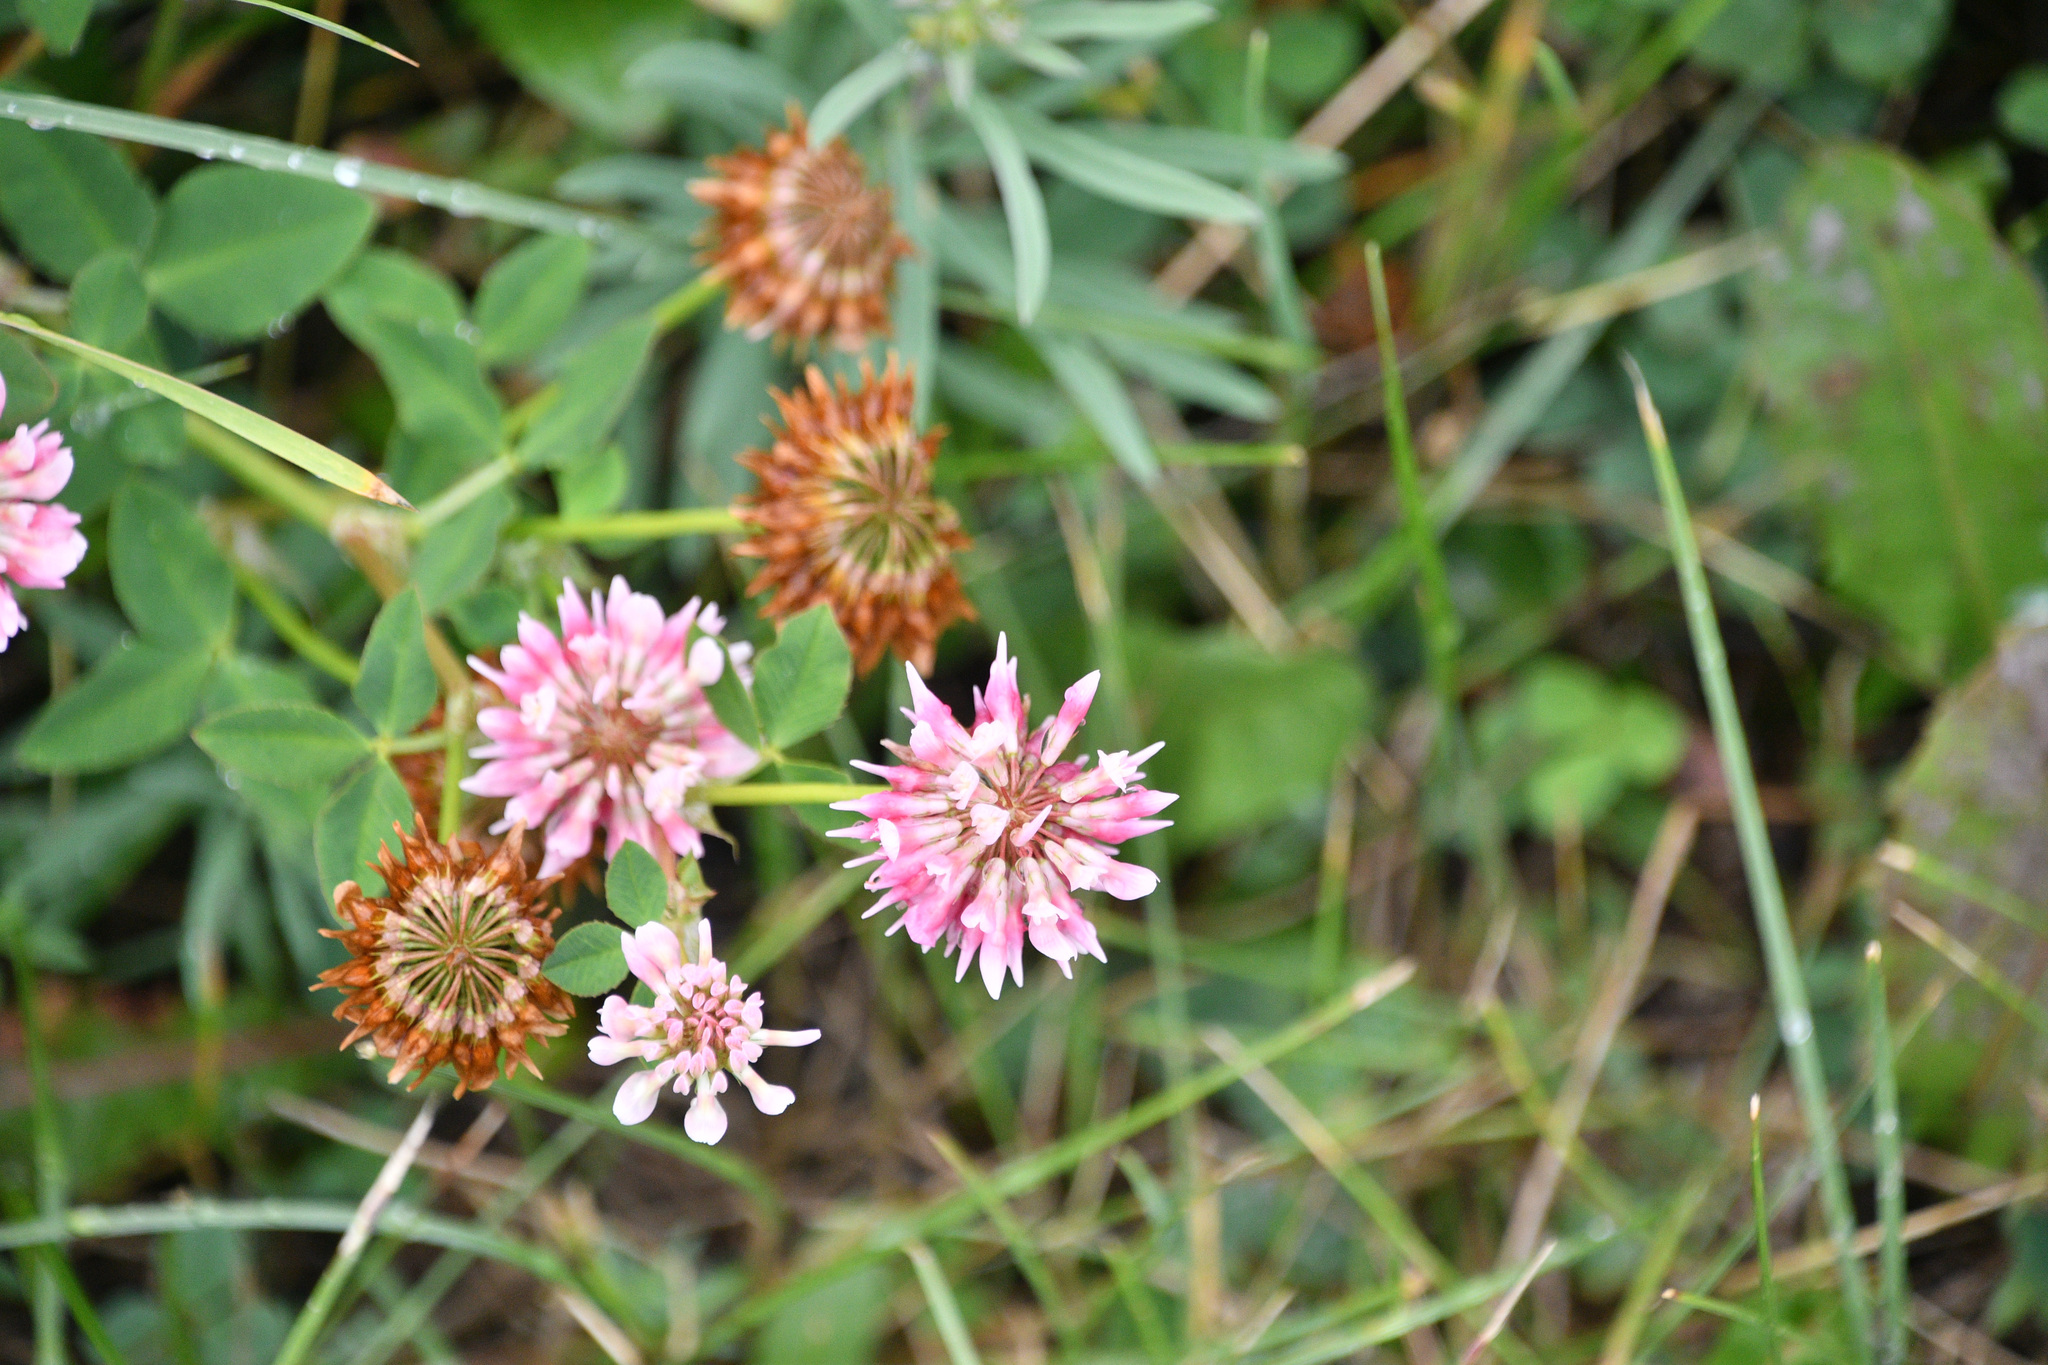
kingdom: Plantae
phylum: Tracheophyta
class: Magnoliopsida
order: Fabales
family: Fabaceae
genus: Trifolium
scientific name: Trifolium hybridum
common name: Alsike clover
